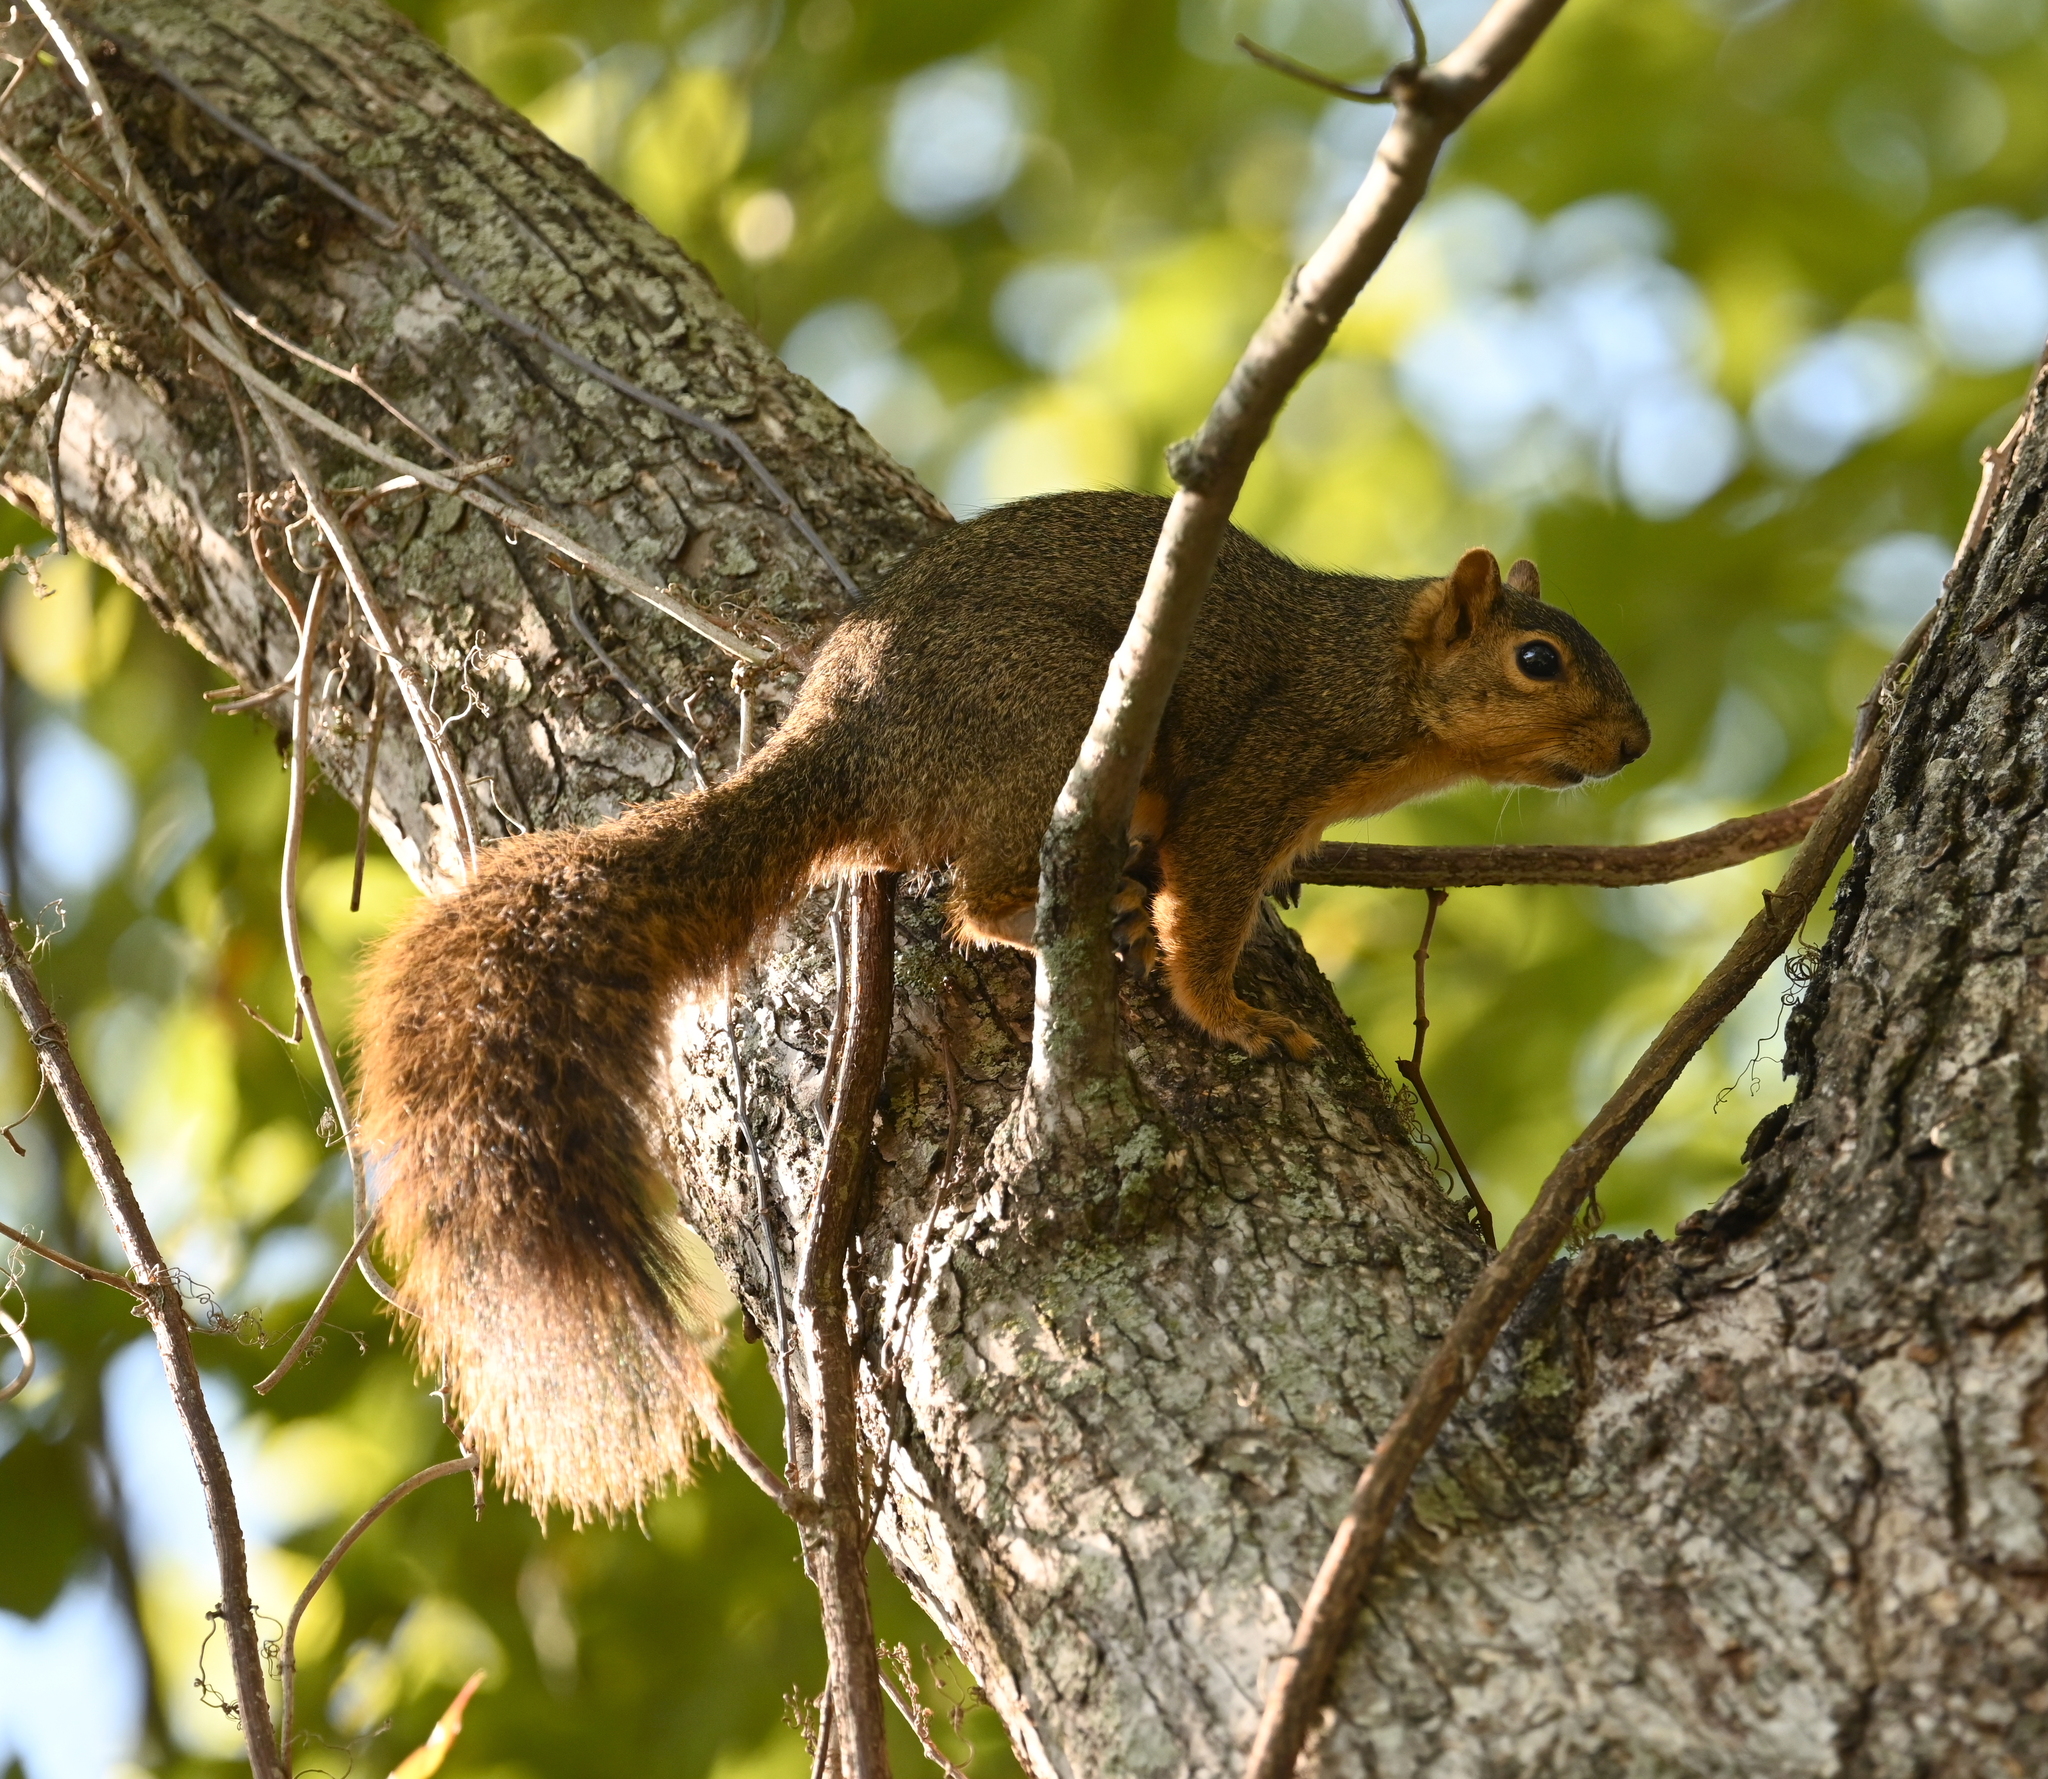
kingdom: Animalia
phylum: Chordata
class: Mammalia
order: Rodentia
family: Sciuridae
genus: Sciurus
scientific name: Sciurus niger
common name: Fox squirrel
